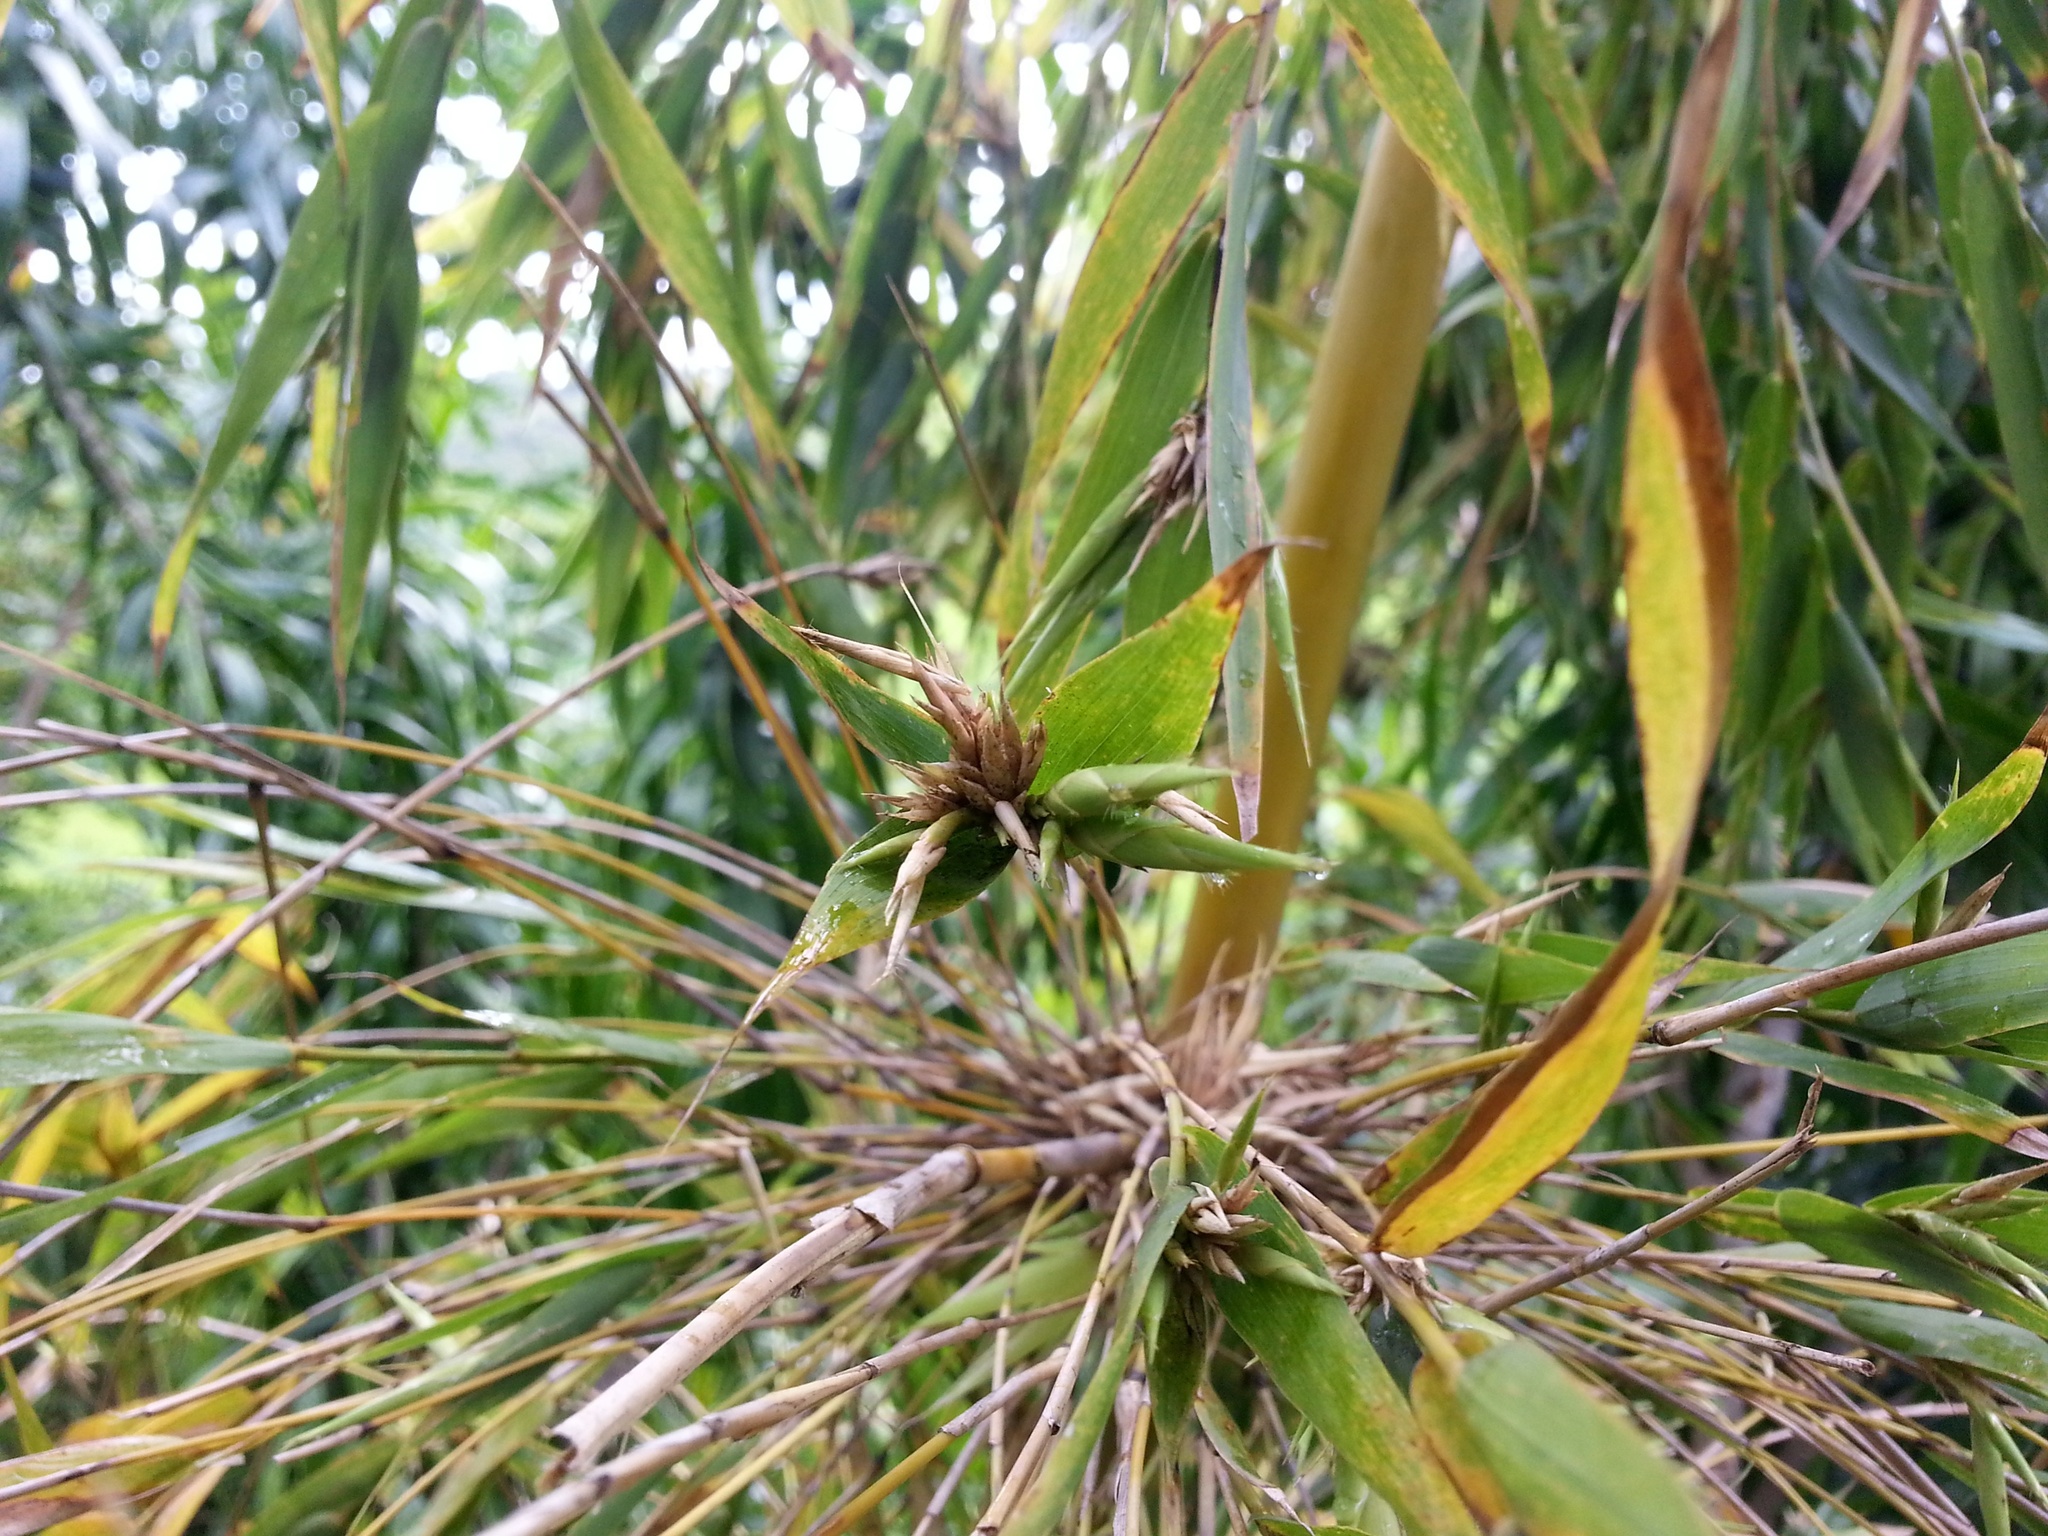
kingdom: Plantae
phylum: Tracheophyta
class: Liliopsida
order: Poales
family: Poaceae
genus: Valiha
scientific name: Valiha diffusa
